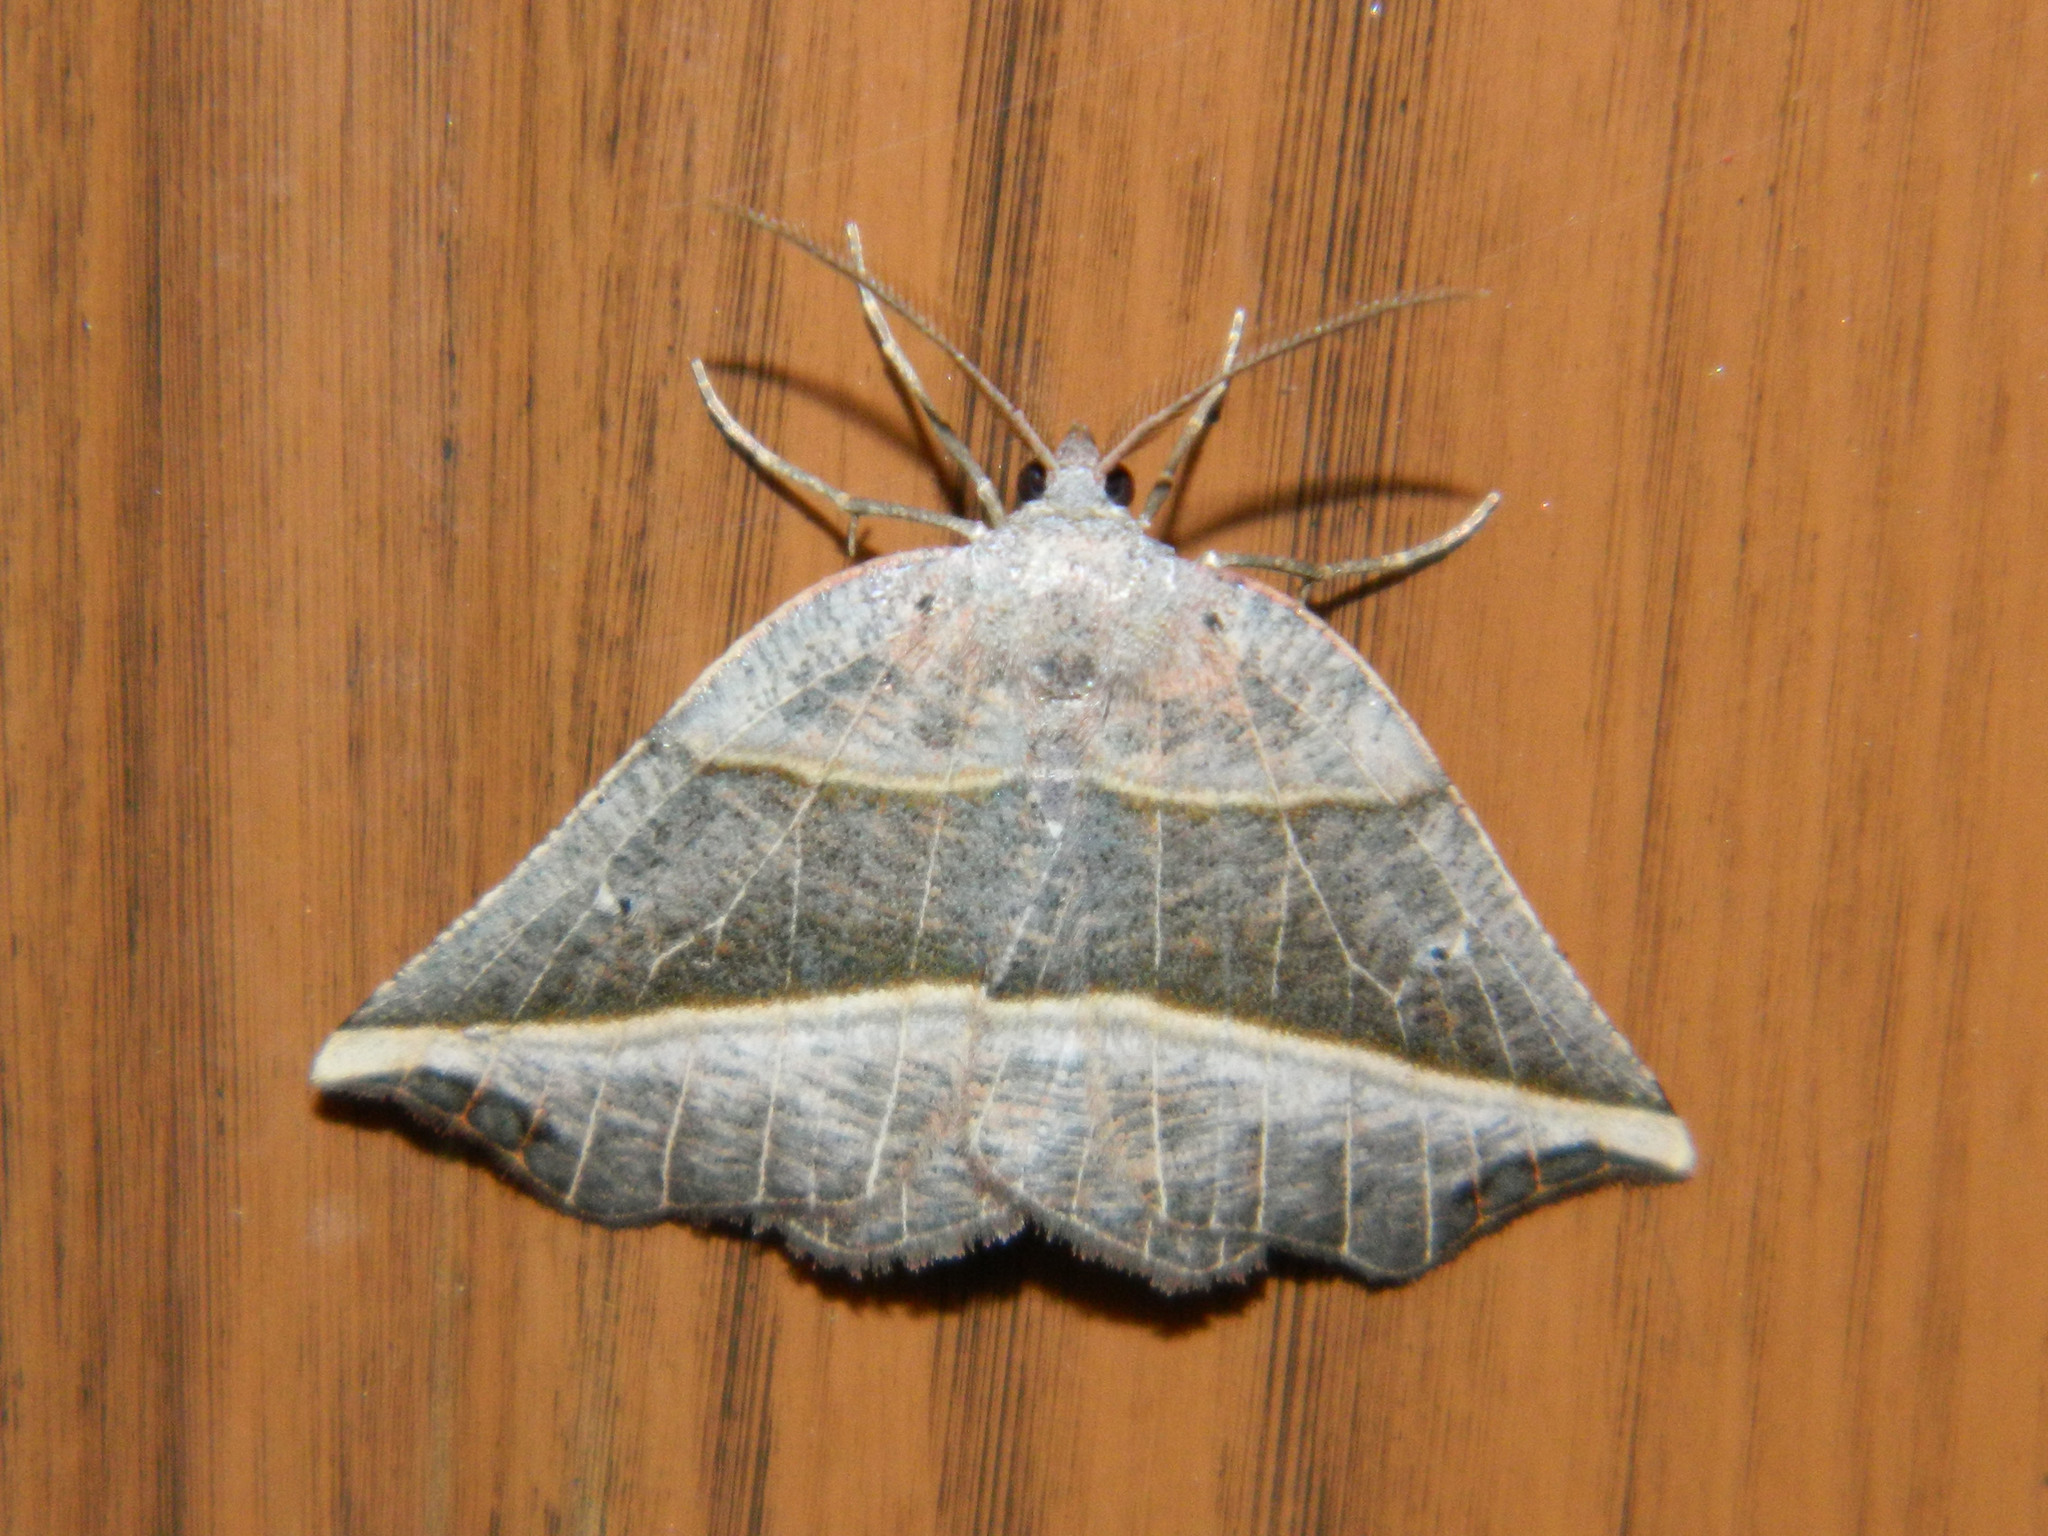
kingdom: Animalia
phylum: Arthropoda
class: Insecta
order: Lepidoptera
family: Geometridae
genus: Metanema
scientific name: Metanema determinata
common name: Dark metanema
